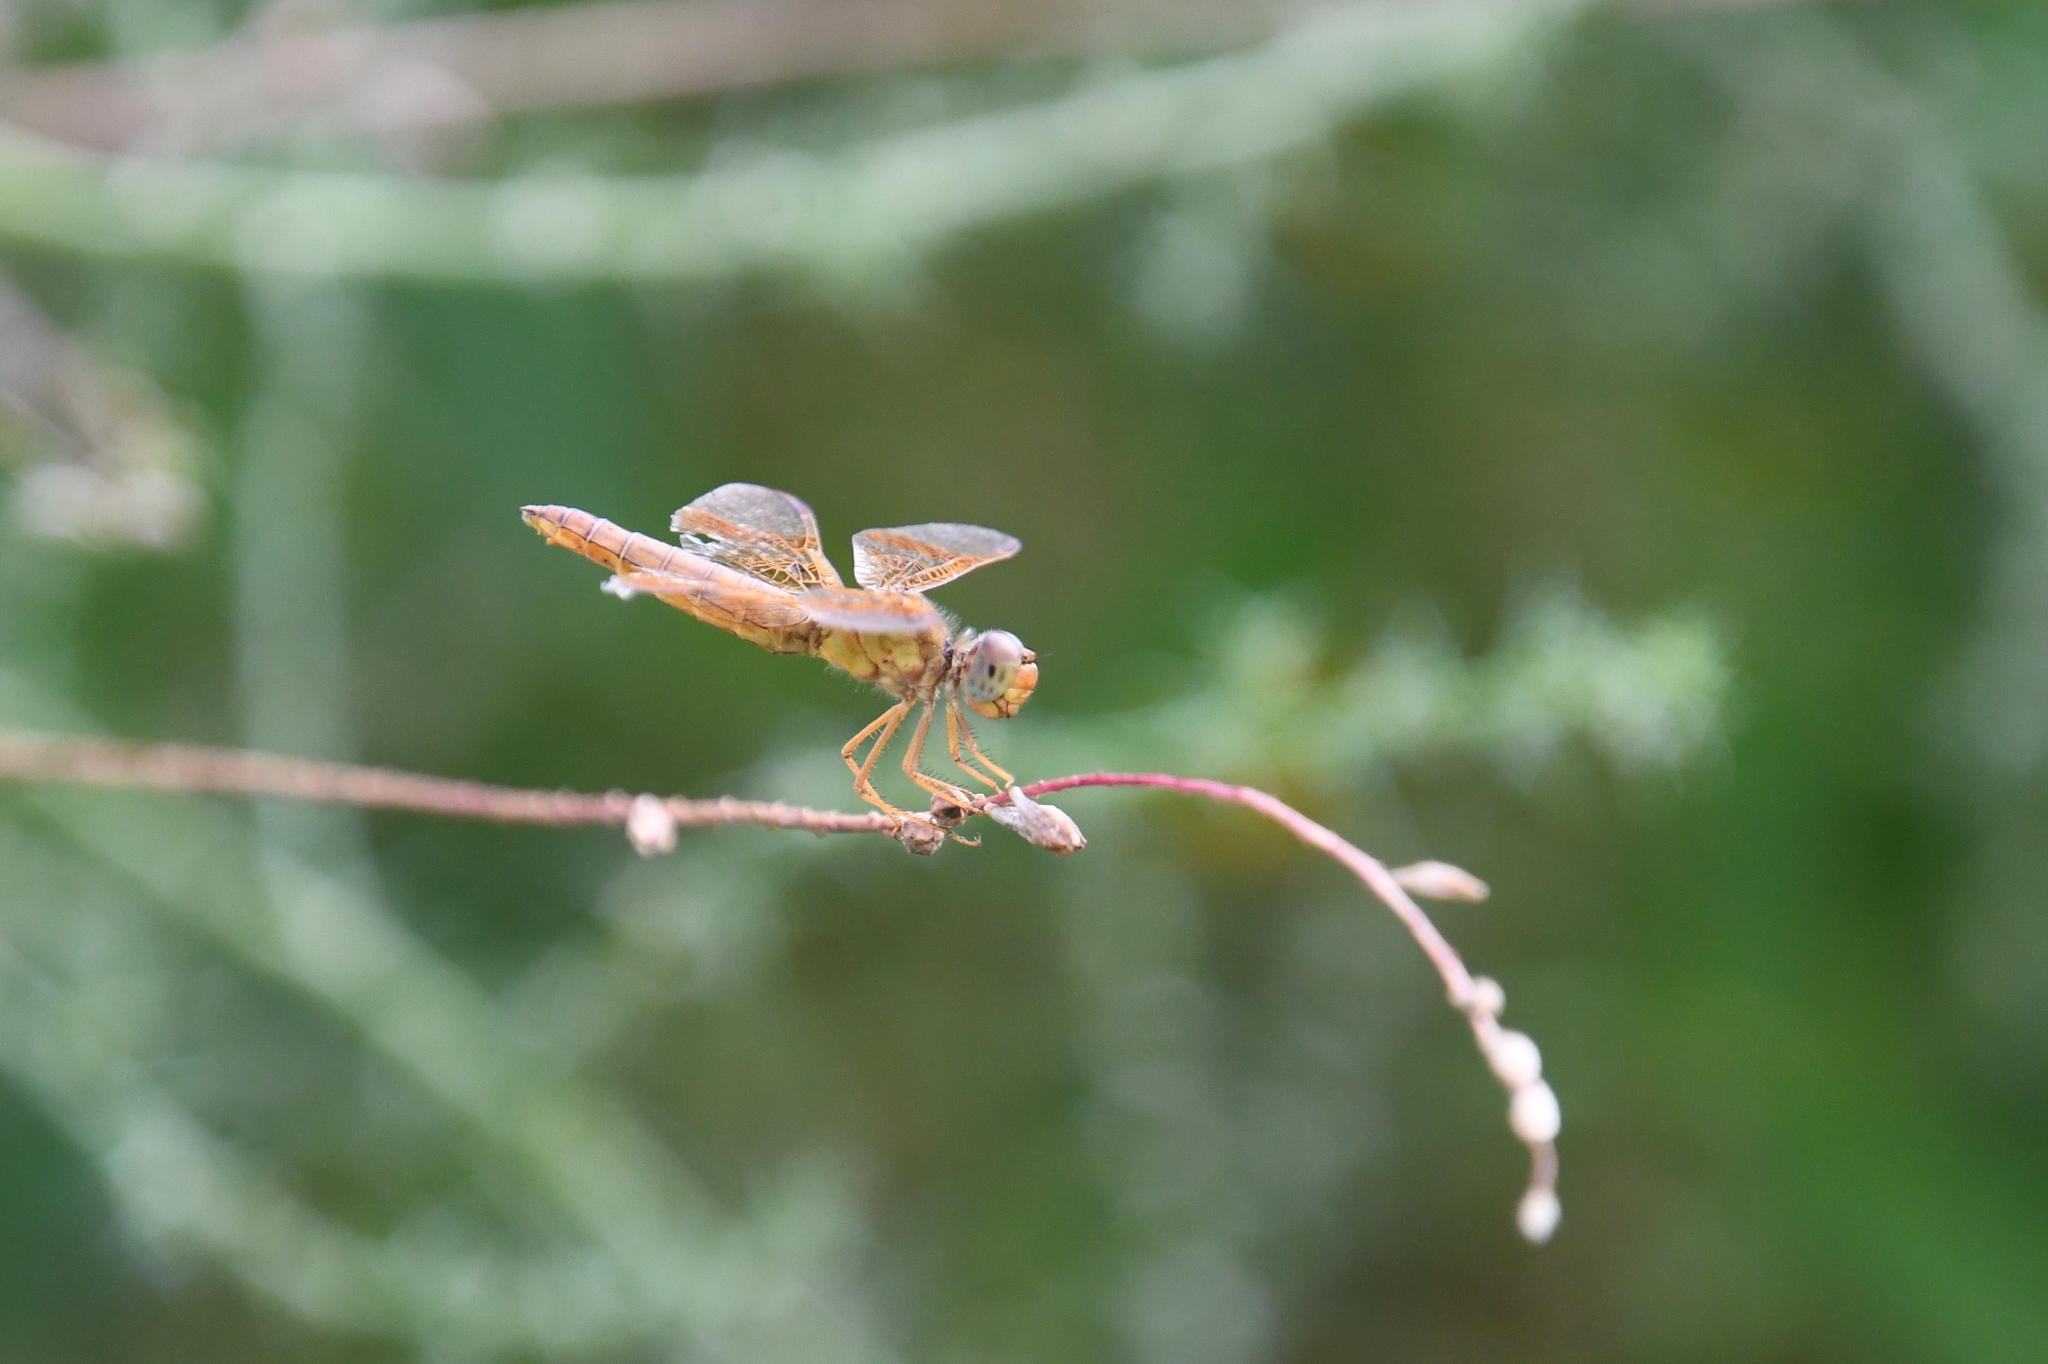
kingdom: Animalia
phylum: Arthropoda
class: Insecta
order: Odonata
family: Libellulidae
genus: Perithemis
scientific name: Perithemis intensa
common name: Mexican amberwing
